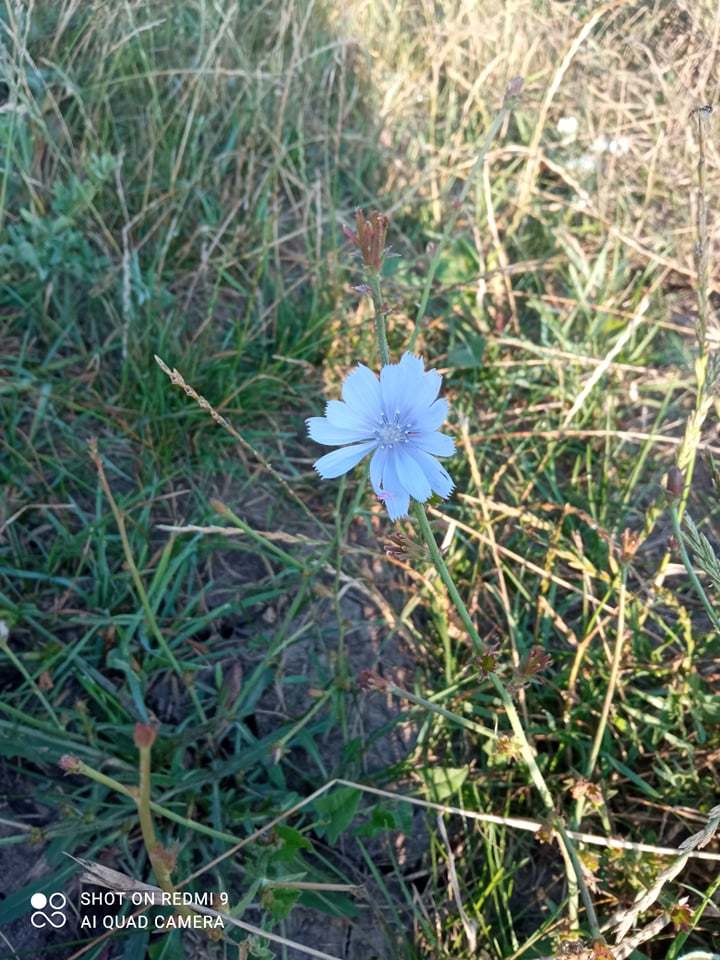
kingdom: Plantae
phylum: Tracheophyta
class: Magnoliopsida
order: Asterales
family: Asteraceae
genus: Cichorium
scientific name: Cichorium intybus
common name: Chicory
